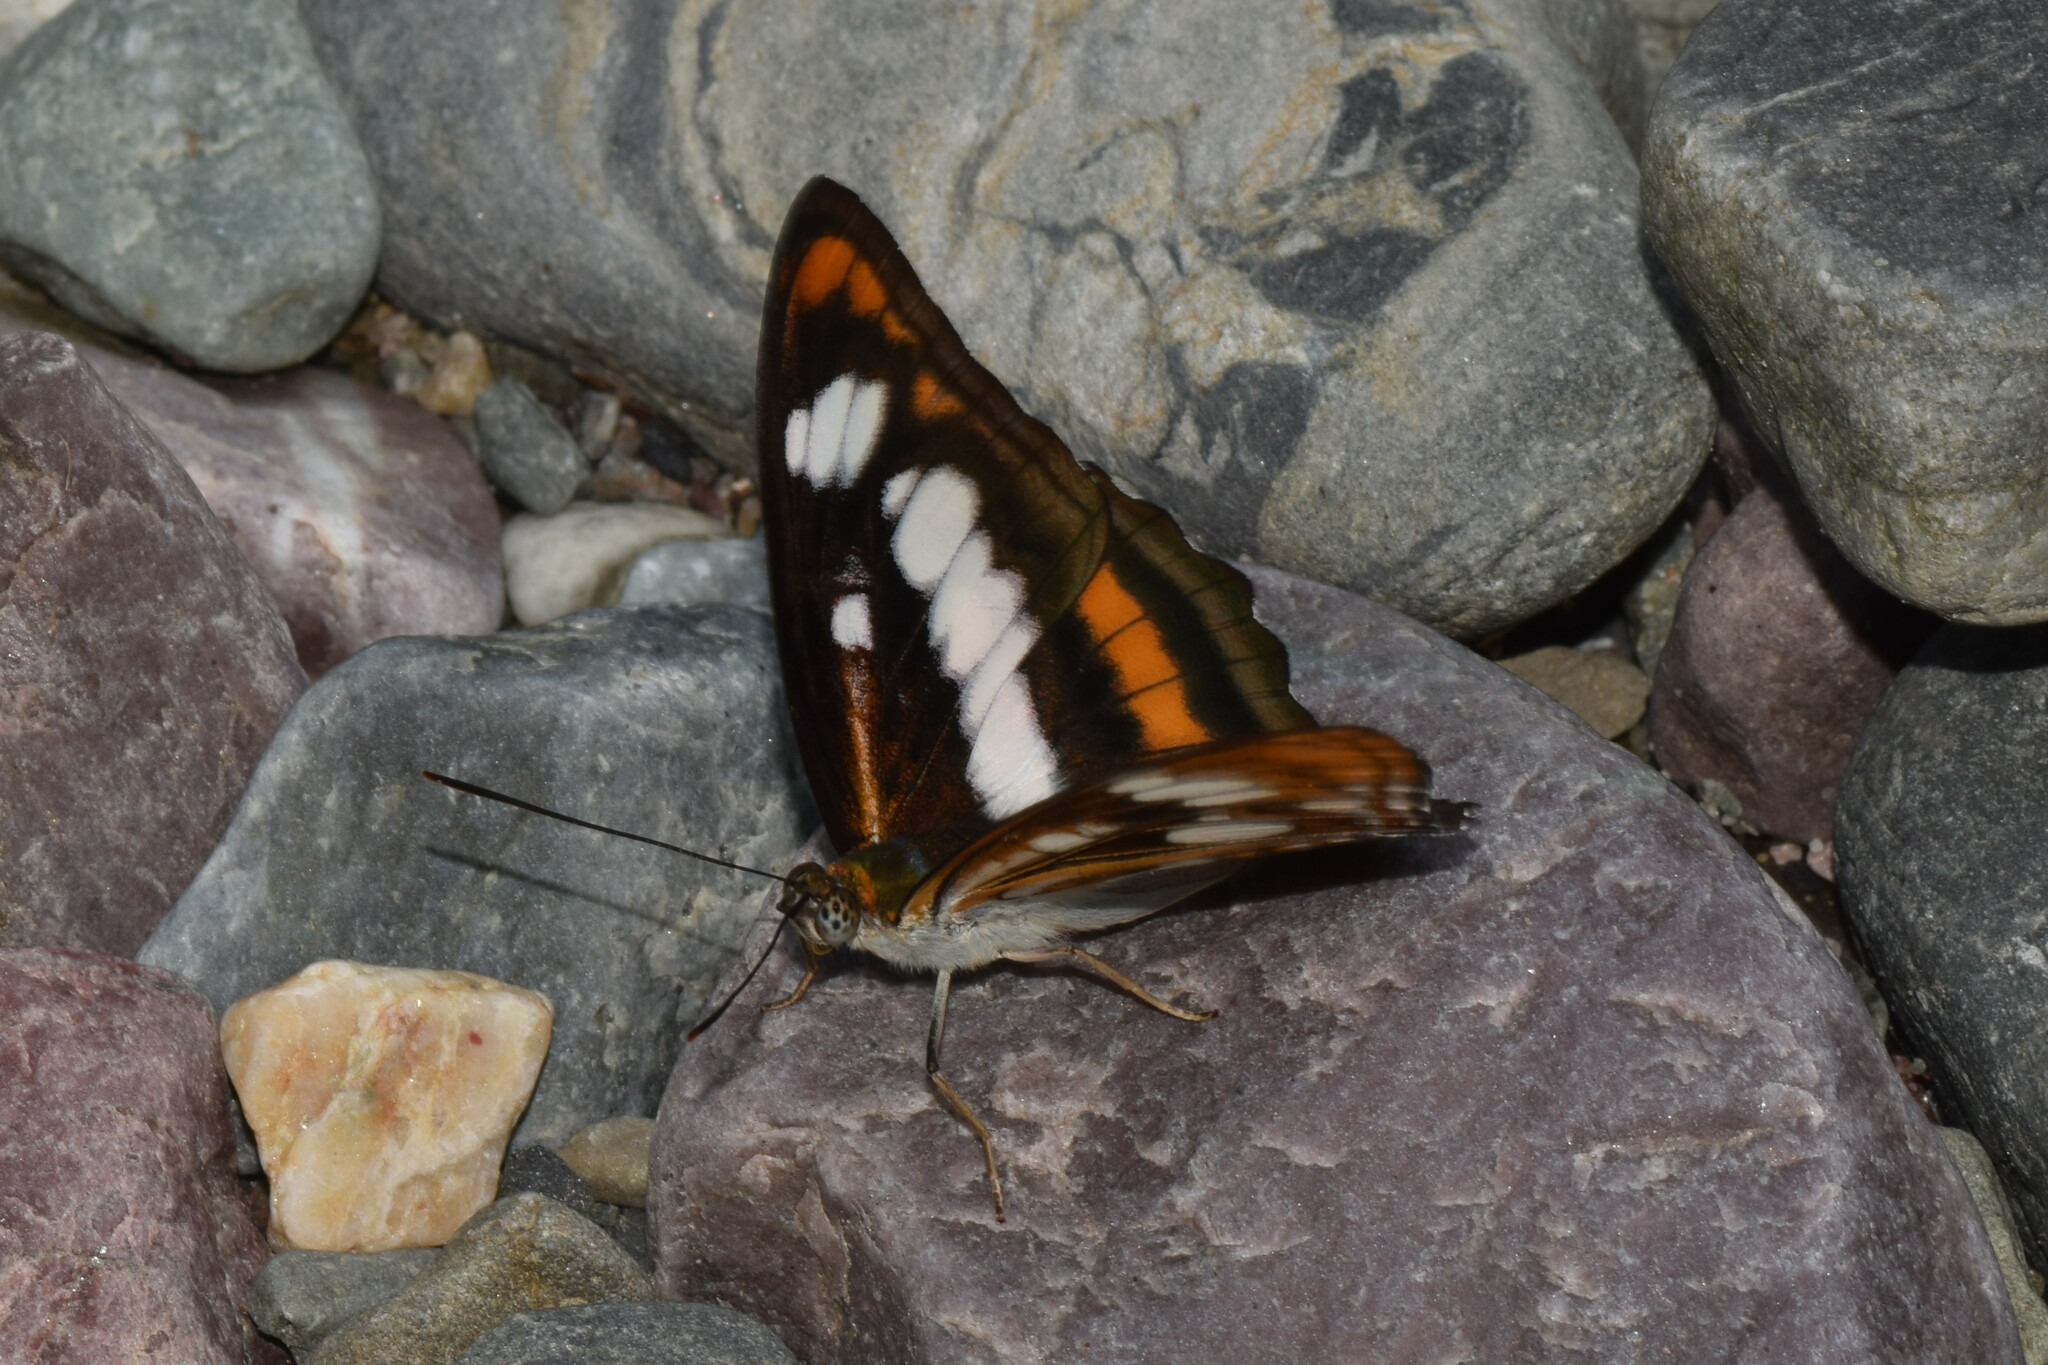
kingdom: Animalia
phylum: Arthropoda
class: Insecta
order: Lepidoptera
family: Nymphalidae
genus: Parathyma
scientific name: Parathyma nefte
